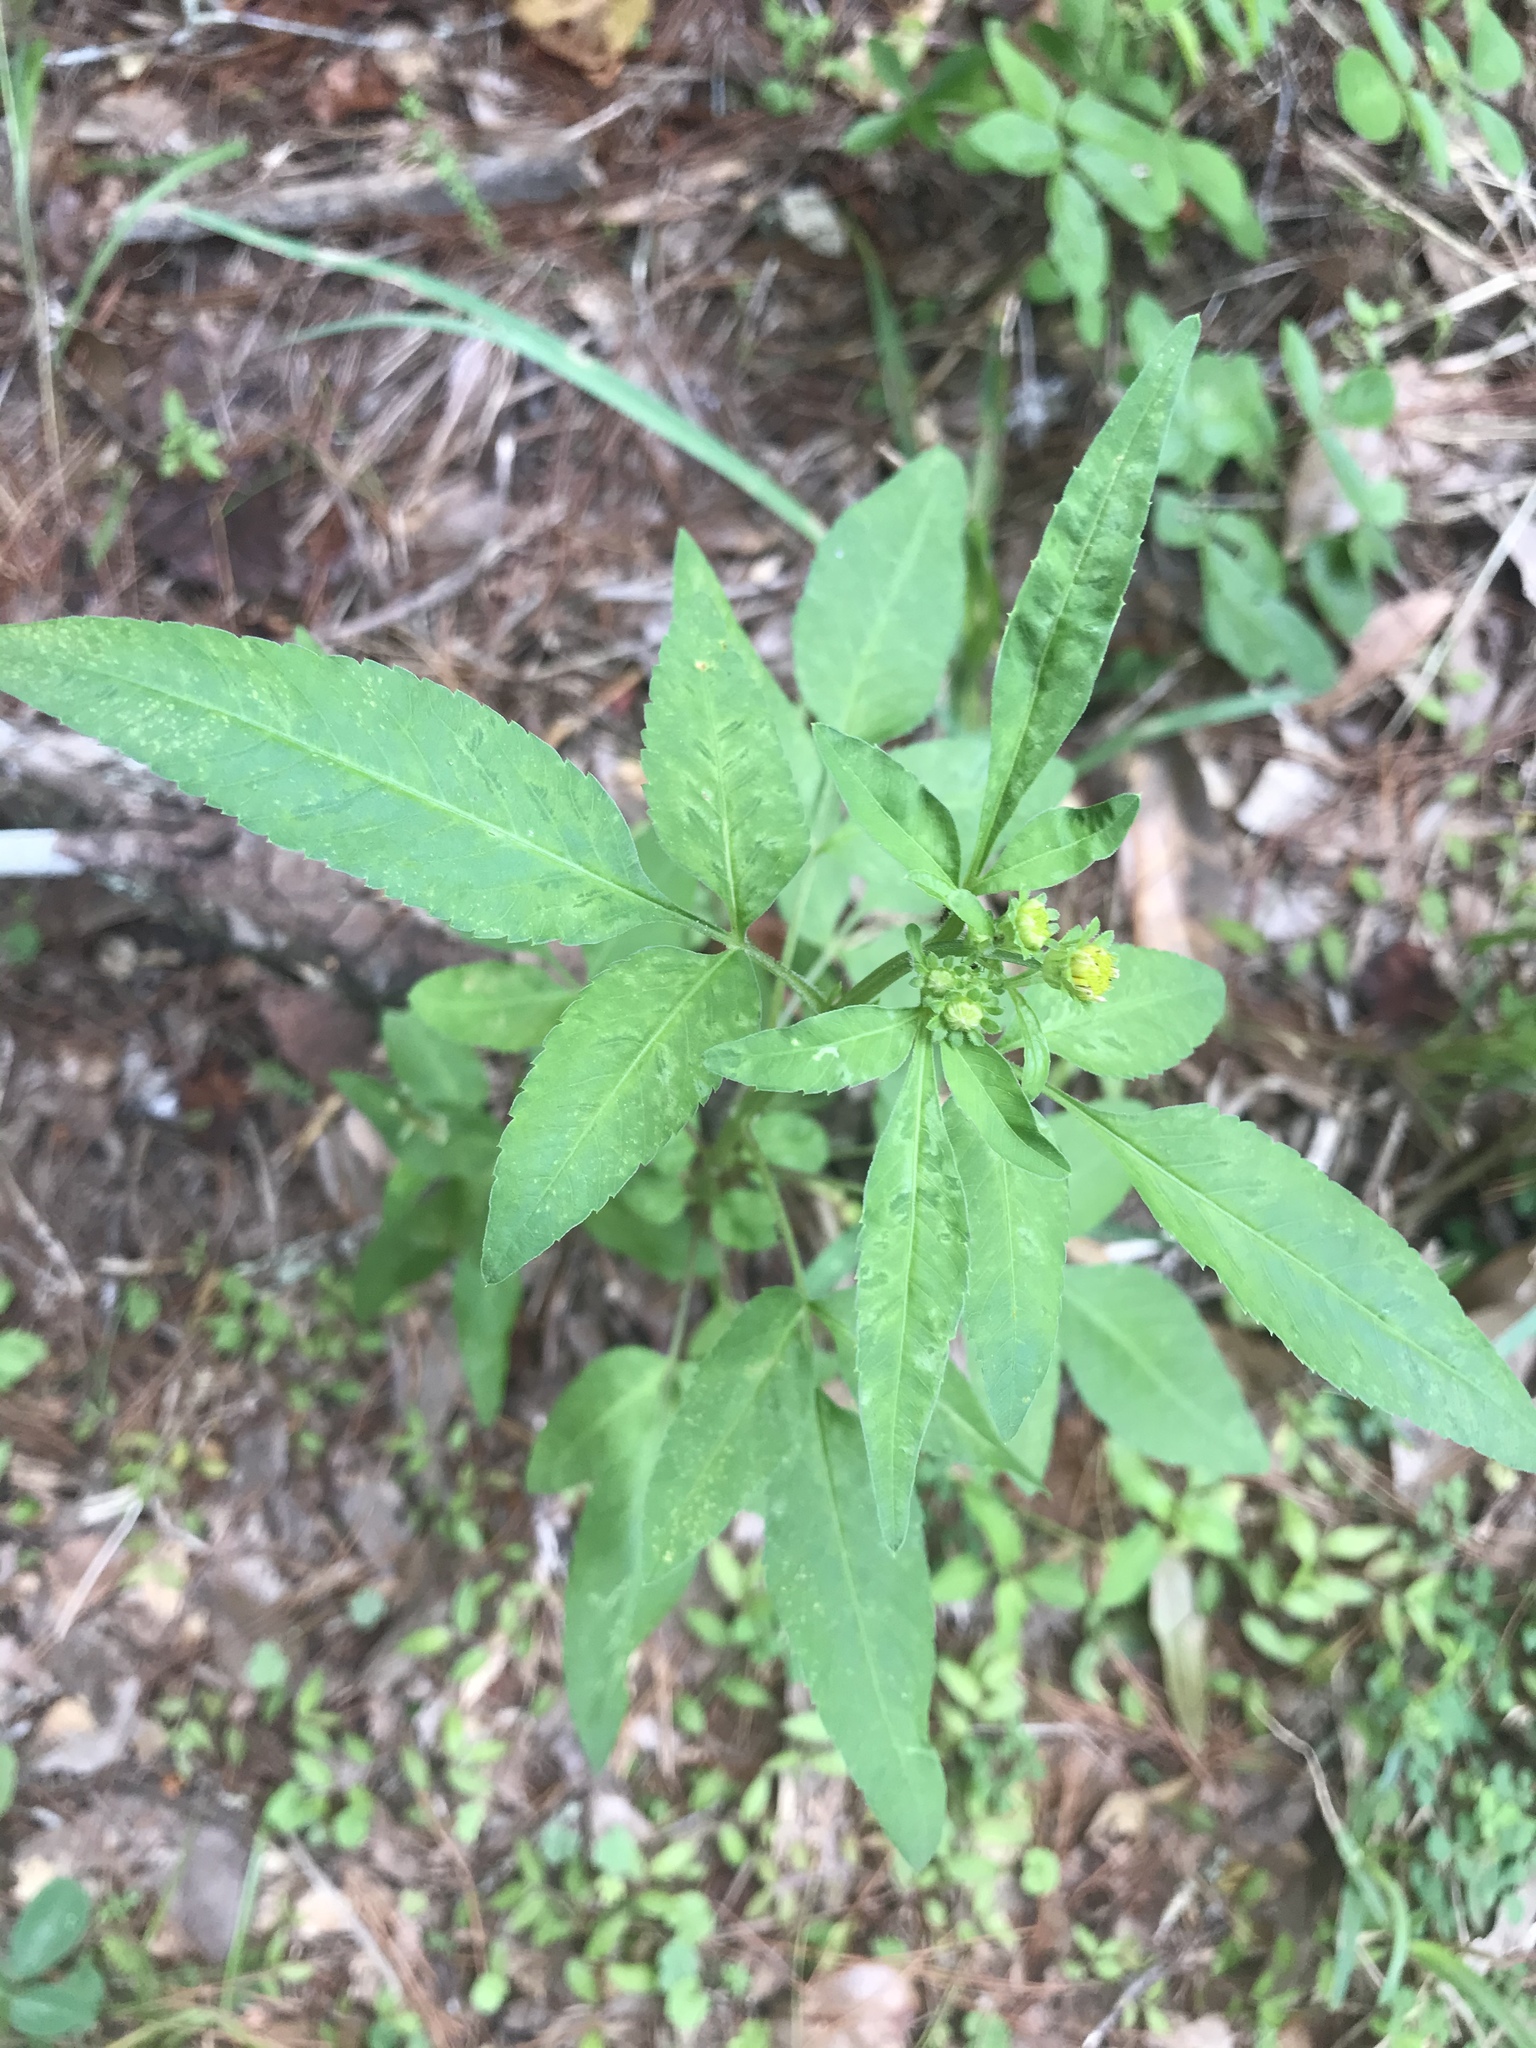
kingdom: Plantae
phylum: Tracheophyta
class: Magnoliopsida
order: Asterales
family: Asteraceae
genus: Bidens
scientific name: Bidens alba
